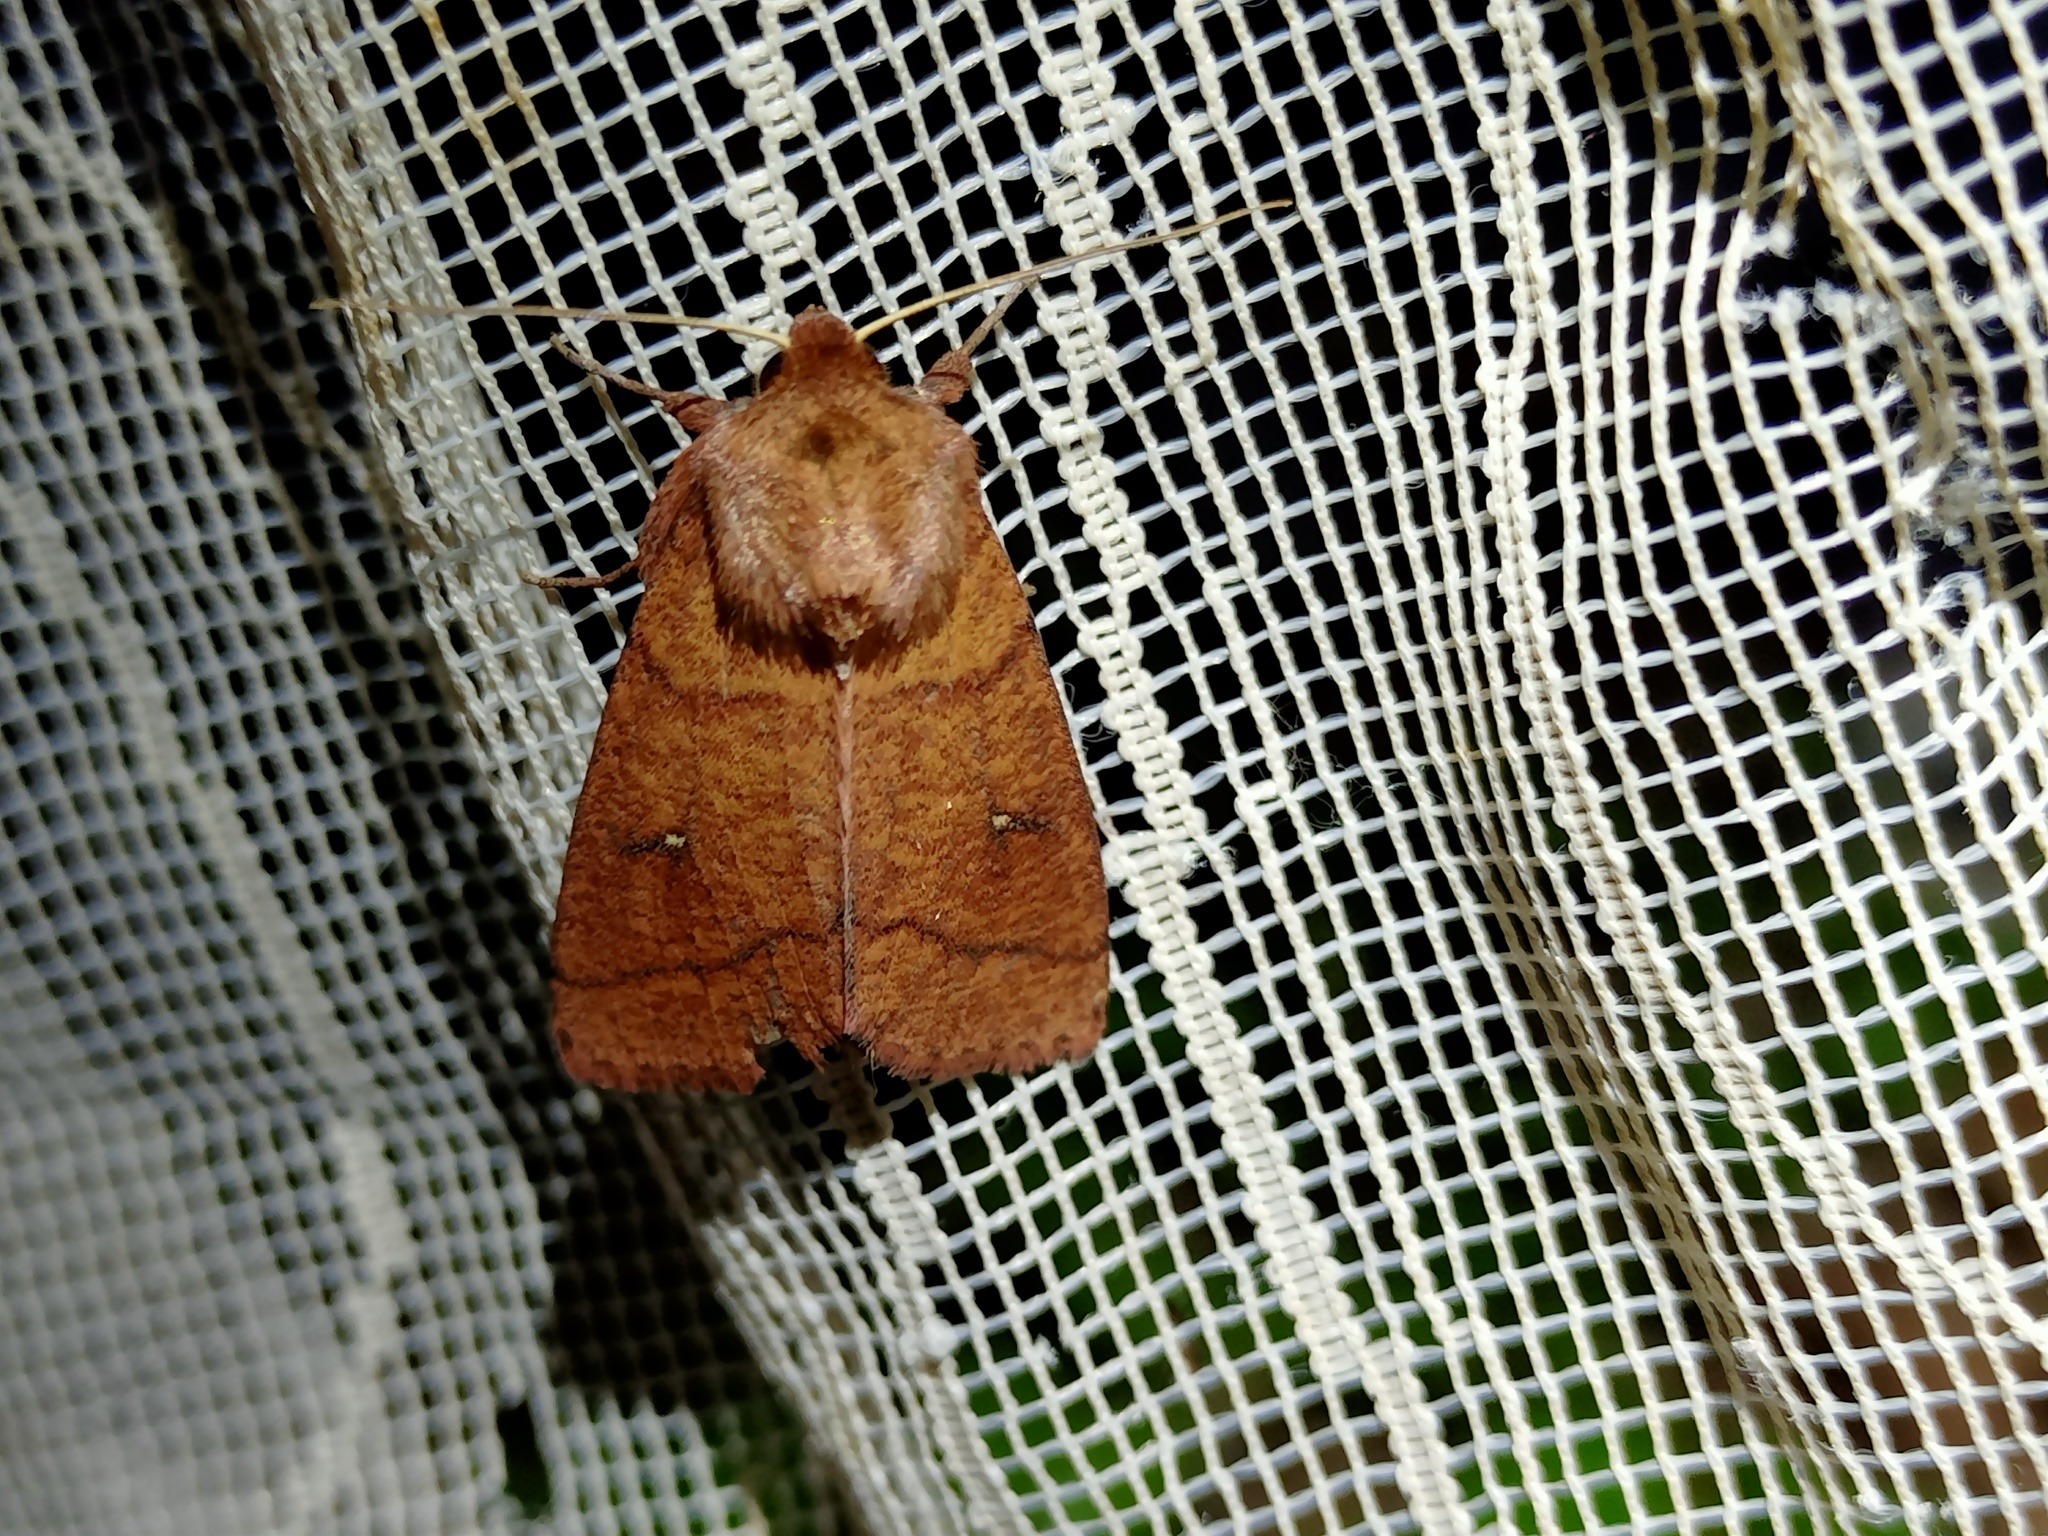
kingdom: Animalia
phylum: Arthropoda
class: Insecta
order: Lepidoptera
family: Noctuidae
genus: Mythimna
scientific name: Mythimna turca
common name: Double line
